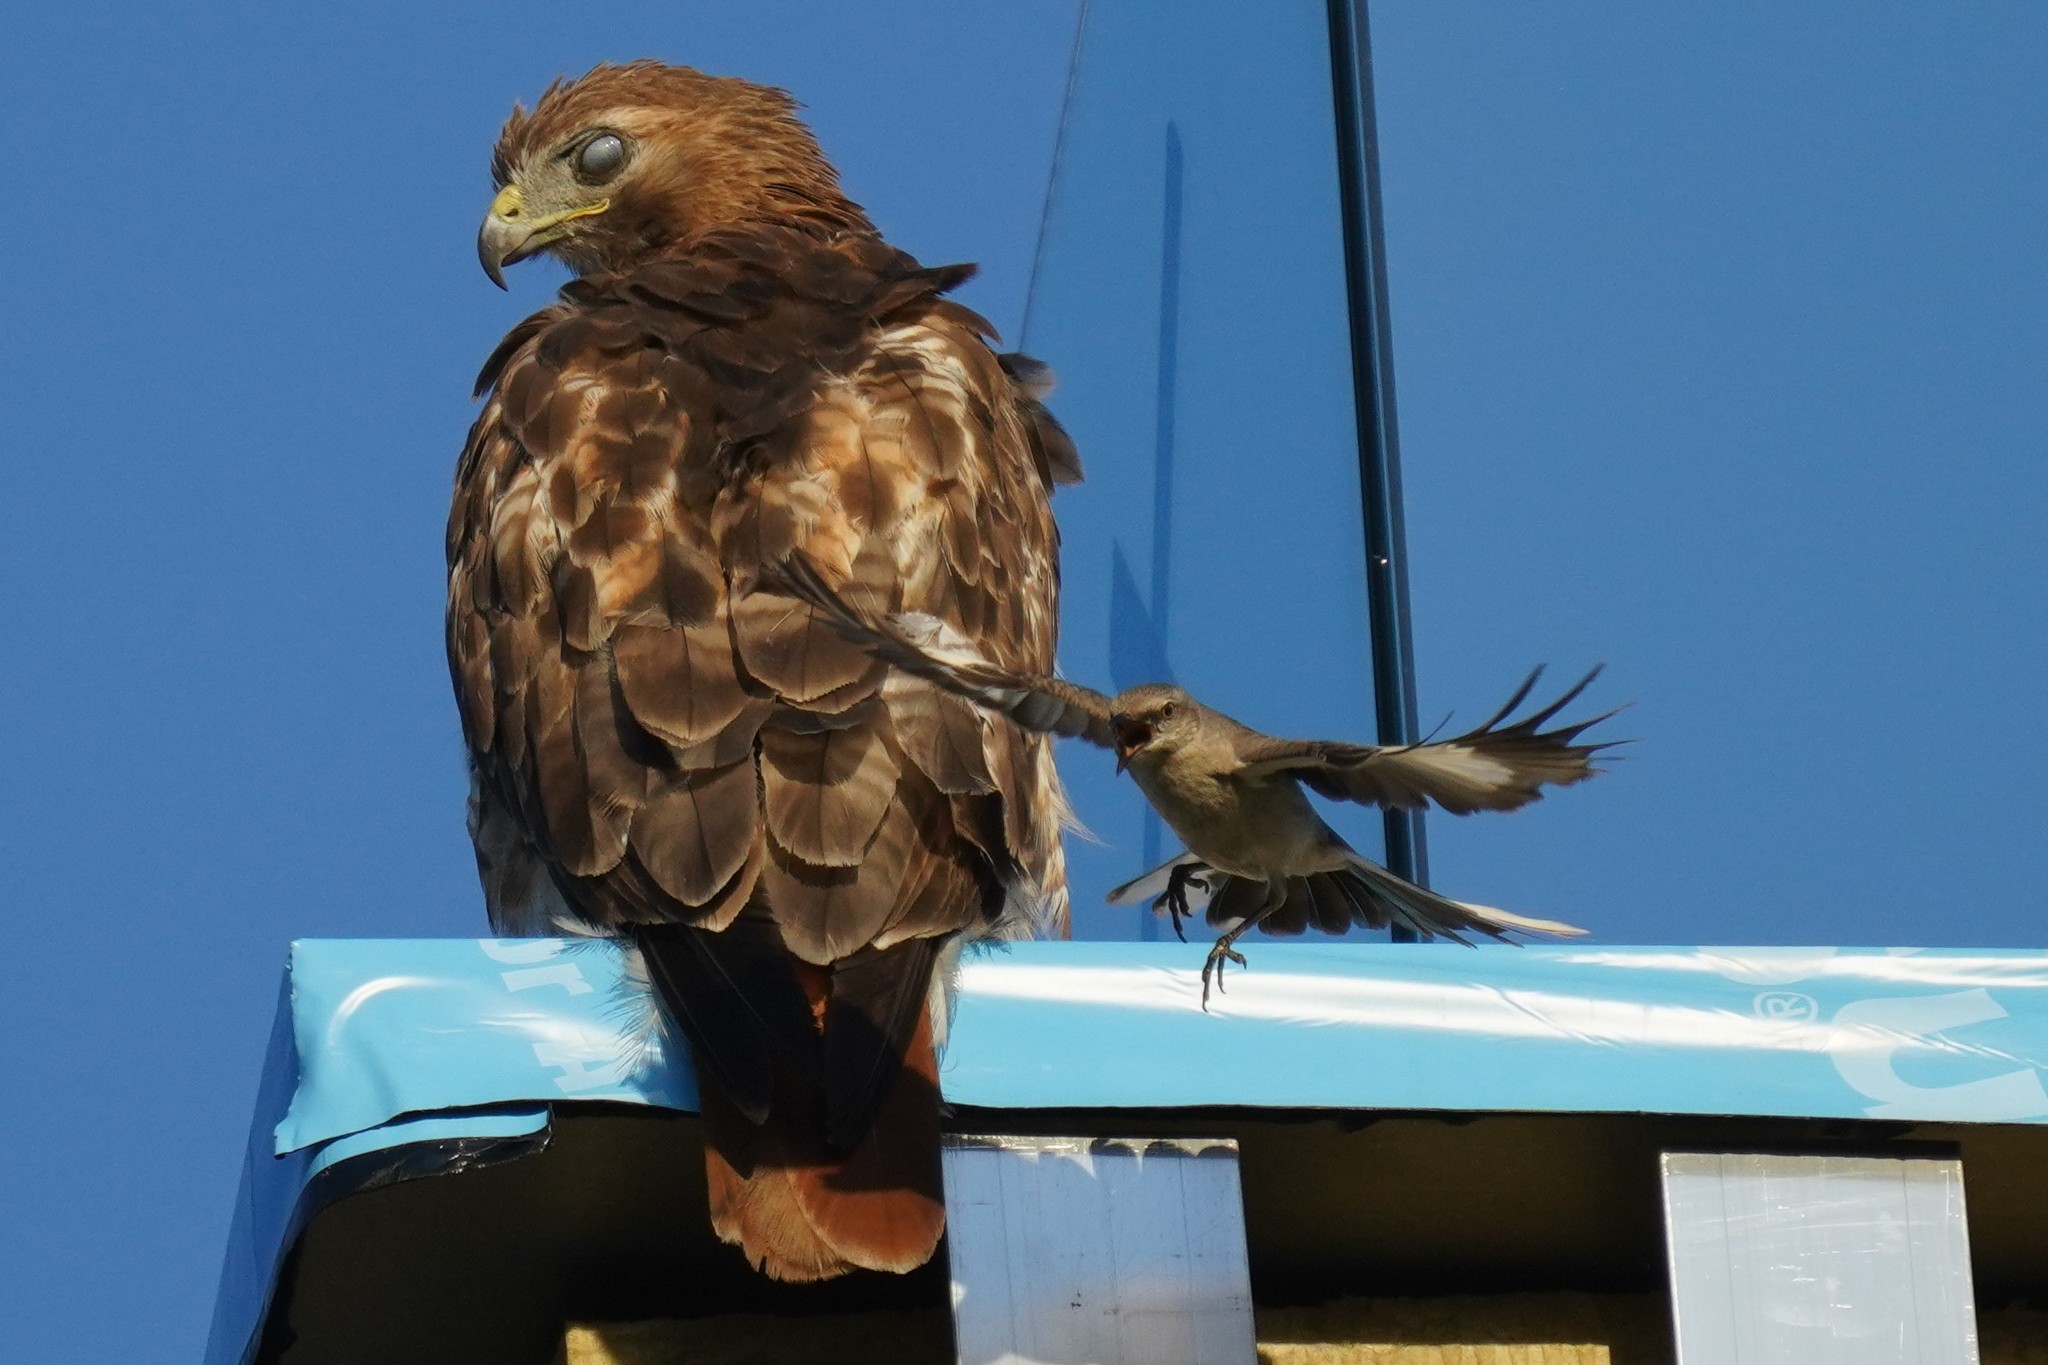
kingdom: Animalia
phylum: Chordata
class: Aves
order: Passeriformes
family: Mimidae
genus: Mimus
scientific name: Mimus polyglottos
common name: Northern mockingbird
